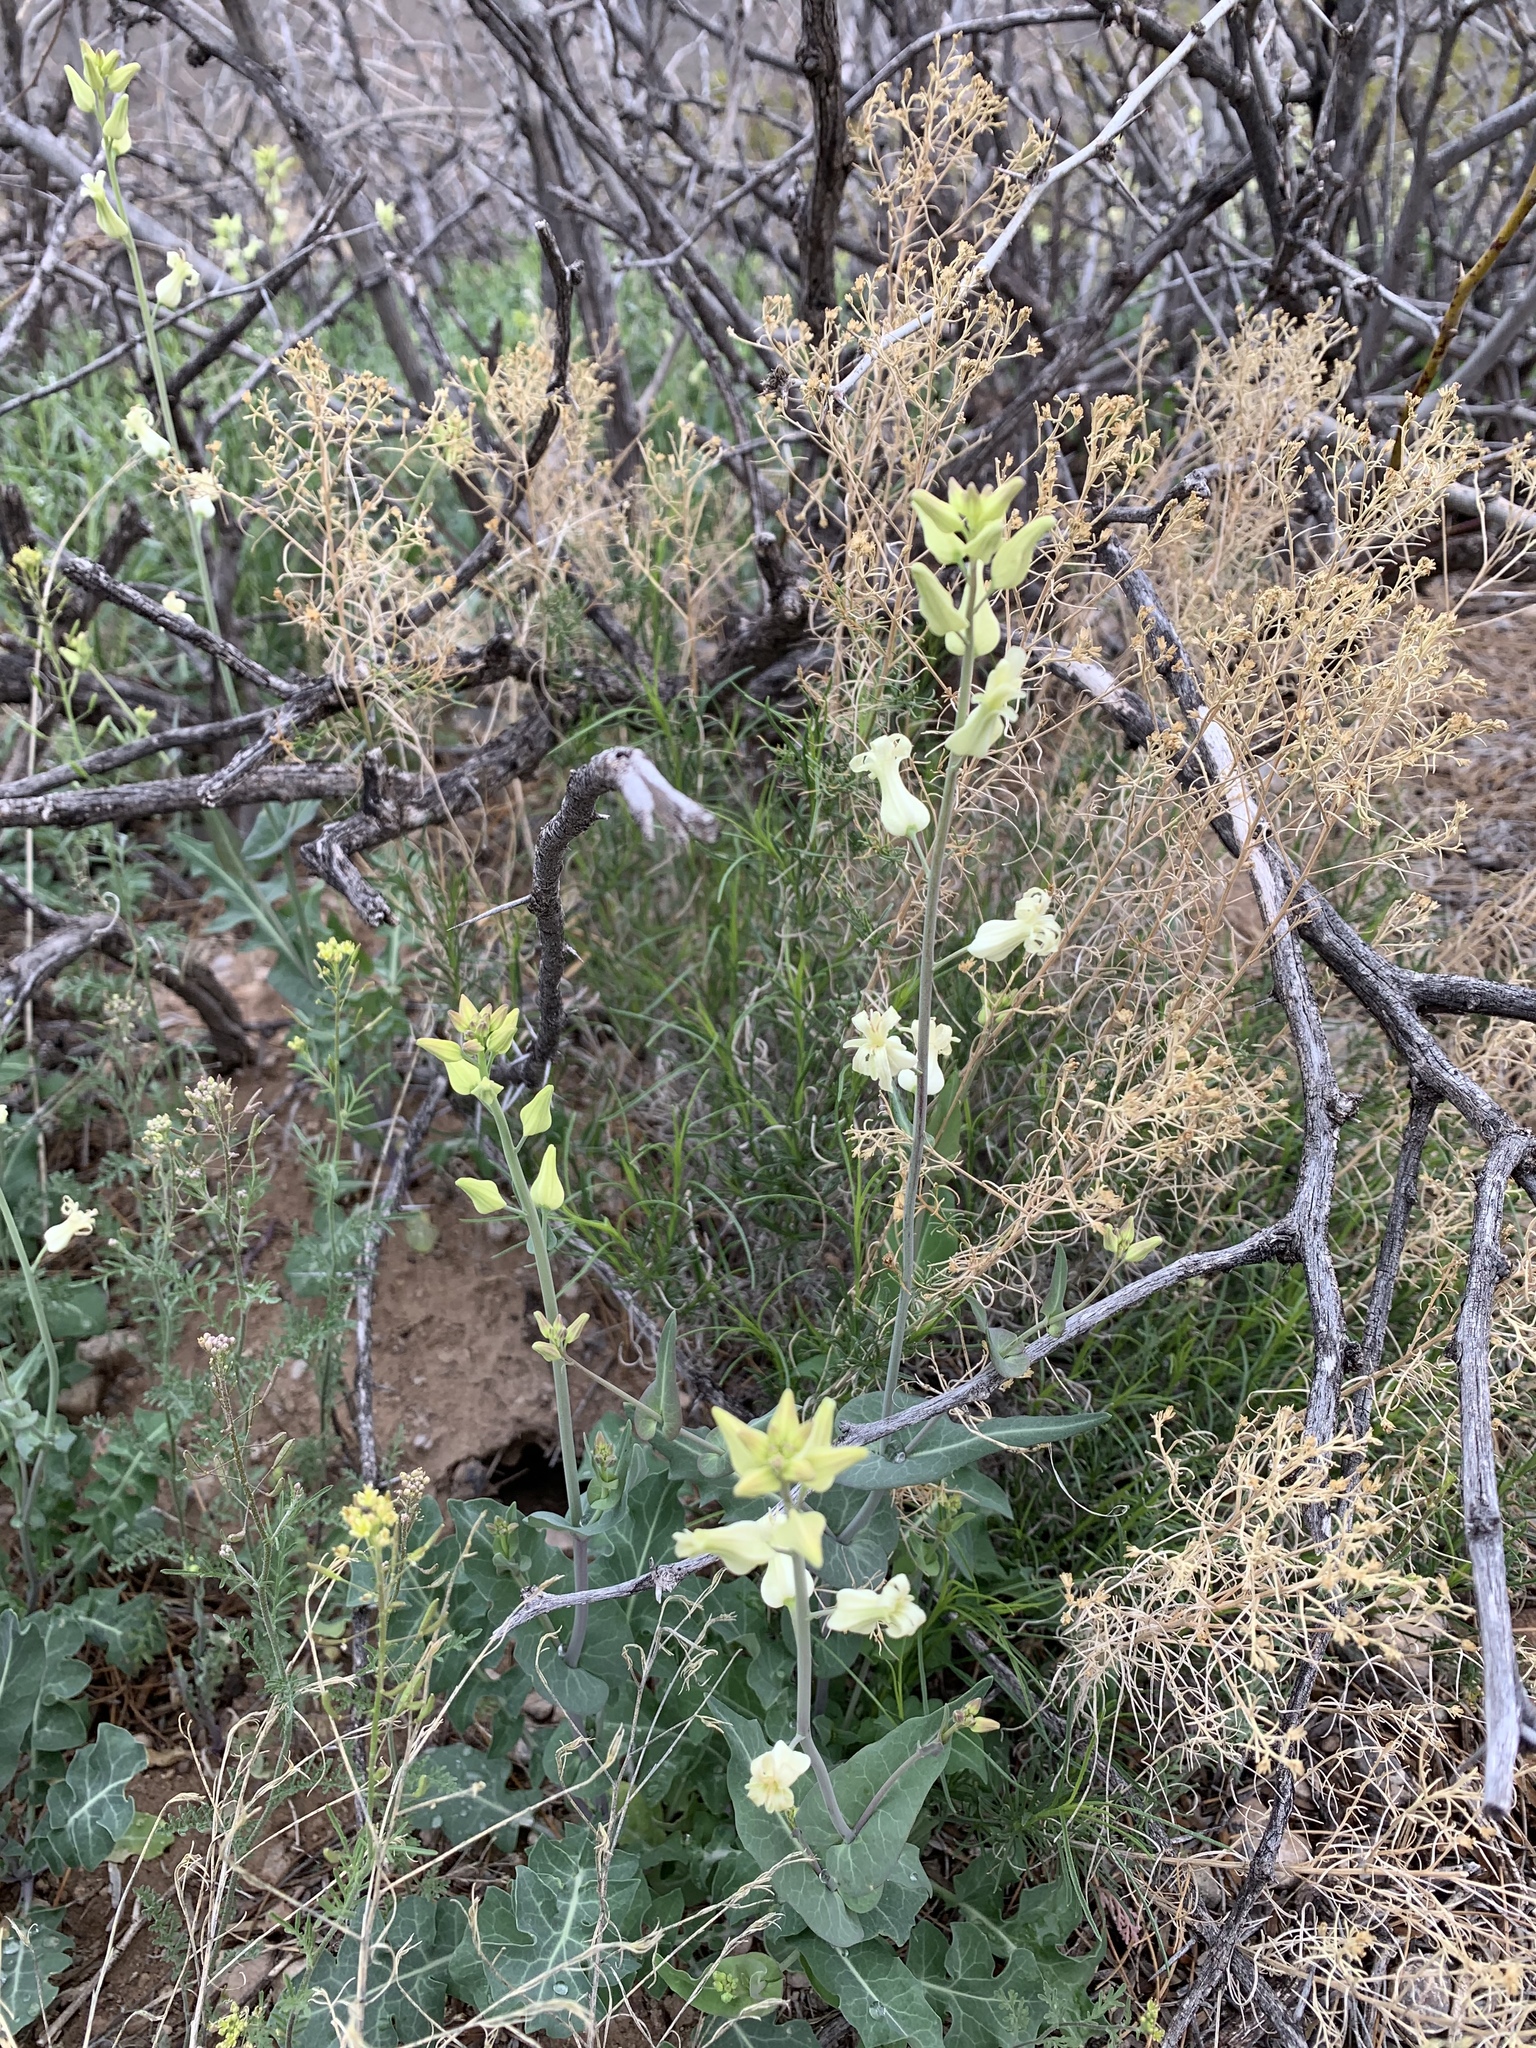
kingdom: Plantae
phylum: Tracheophyta
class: Magnoliopsida
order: Brassicales
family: Brassicaceae
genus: Streptanthus
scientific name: Streptanthus carinatus
